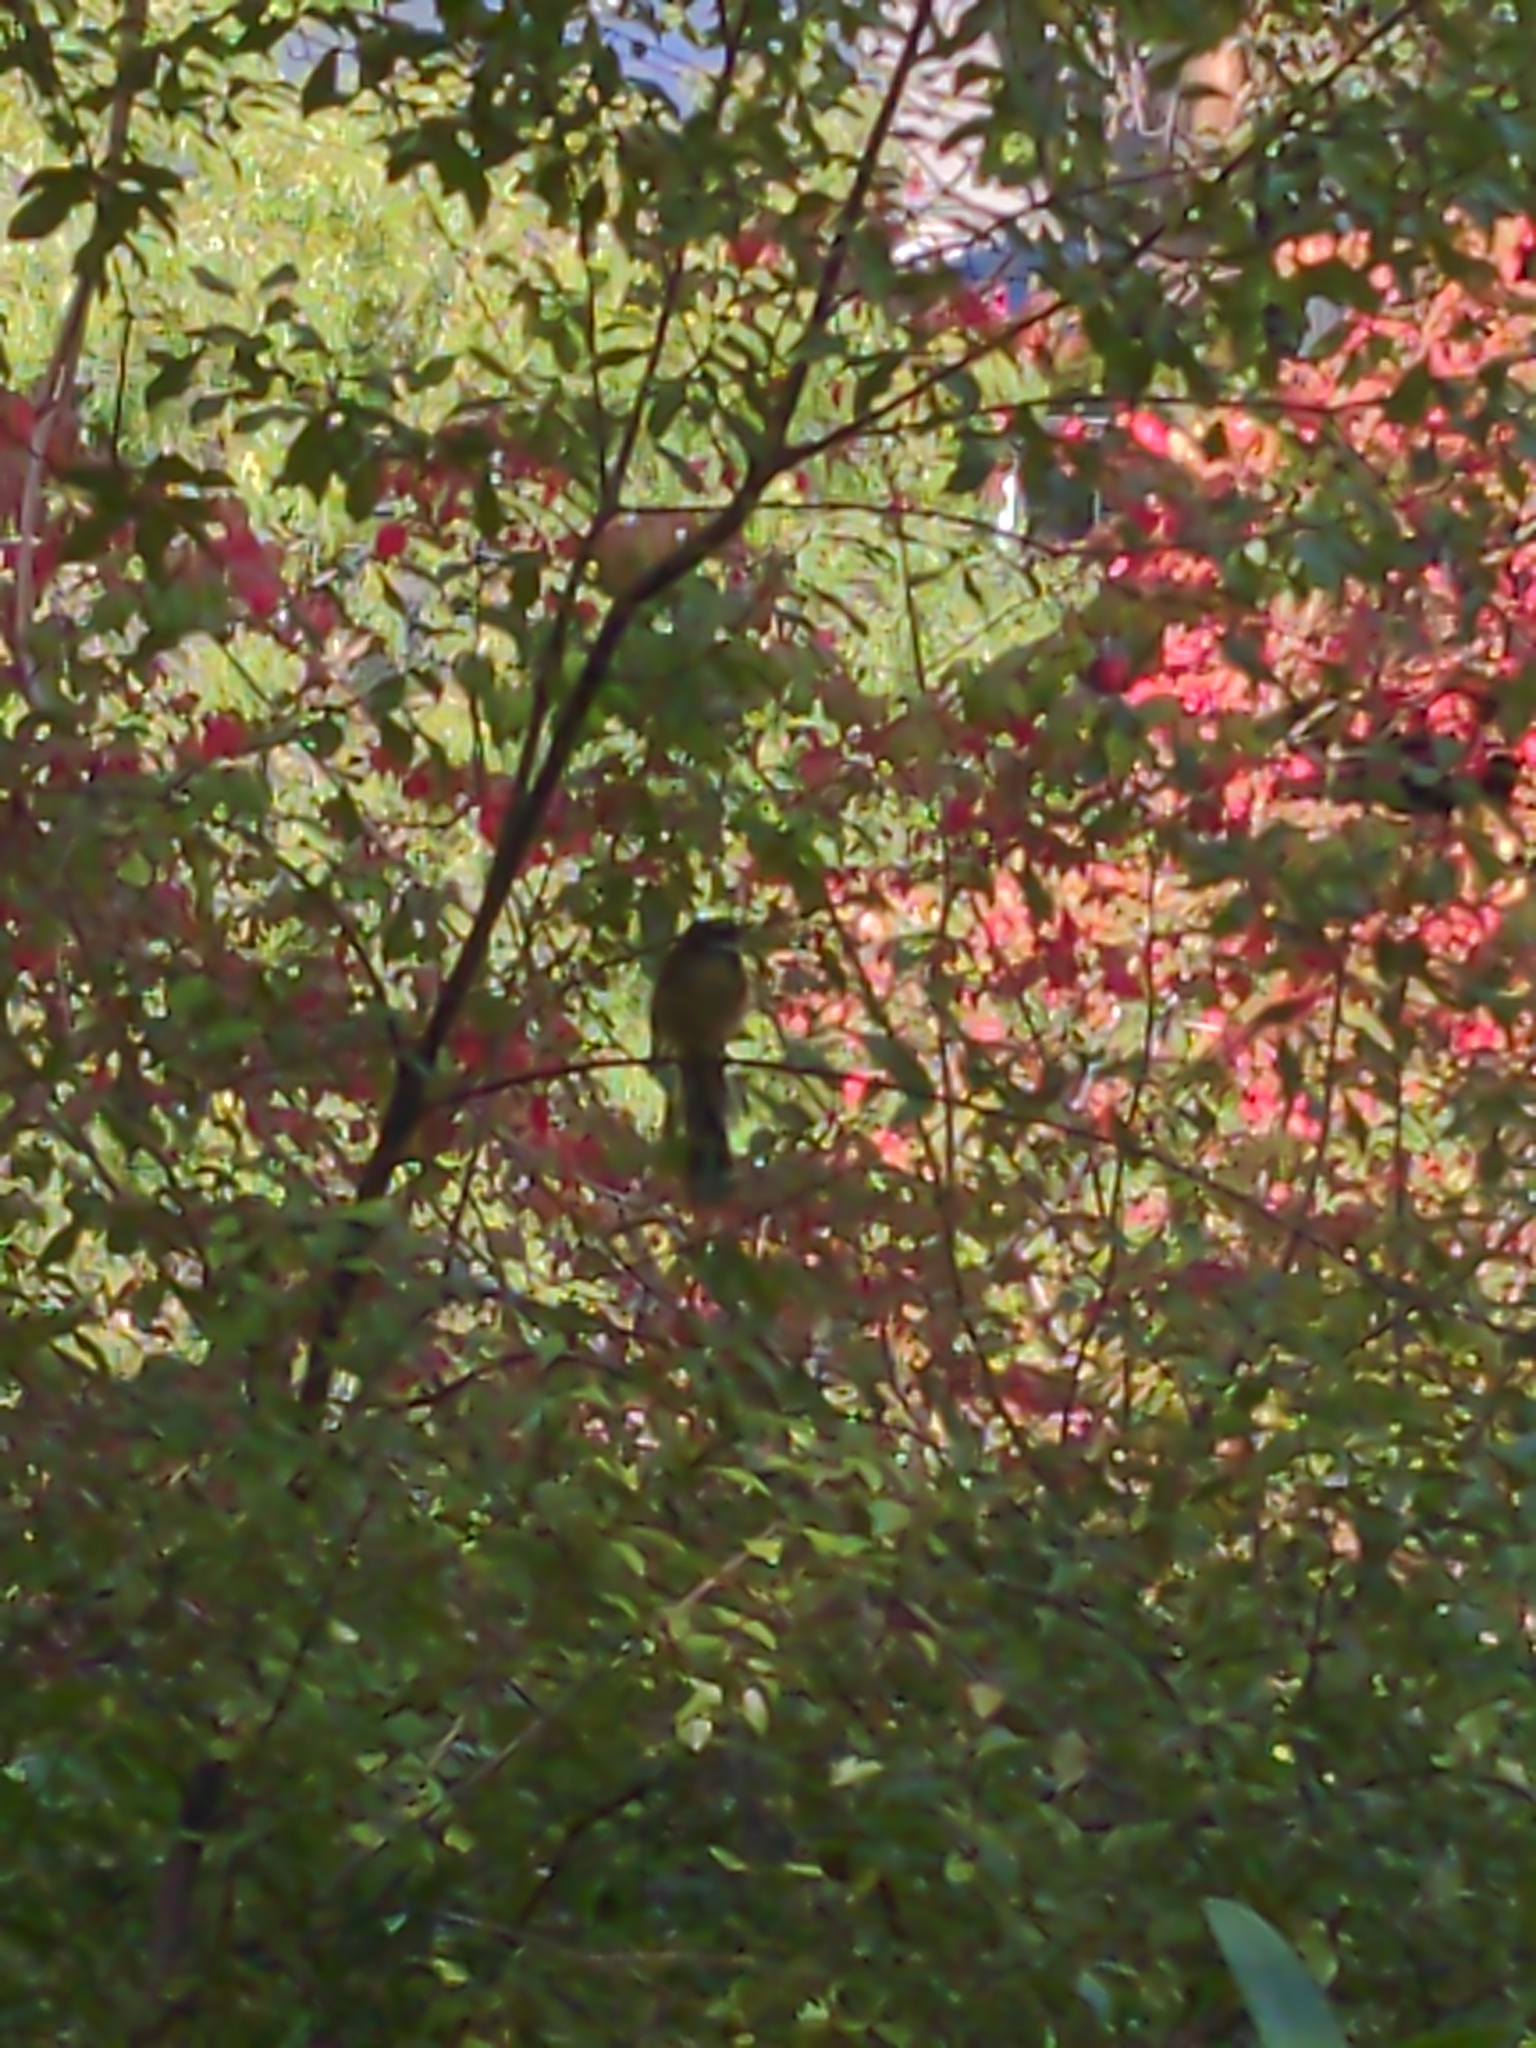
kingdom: Animalia
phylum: Chordata
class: Aves
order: Passeriformes
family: Rhipiduridae
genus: Rhipidura
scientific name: Rhipidura albiscapa
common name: Grey fantail
